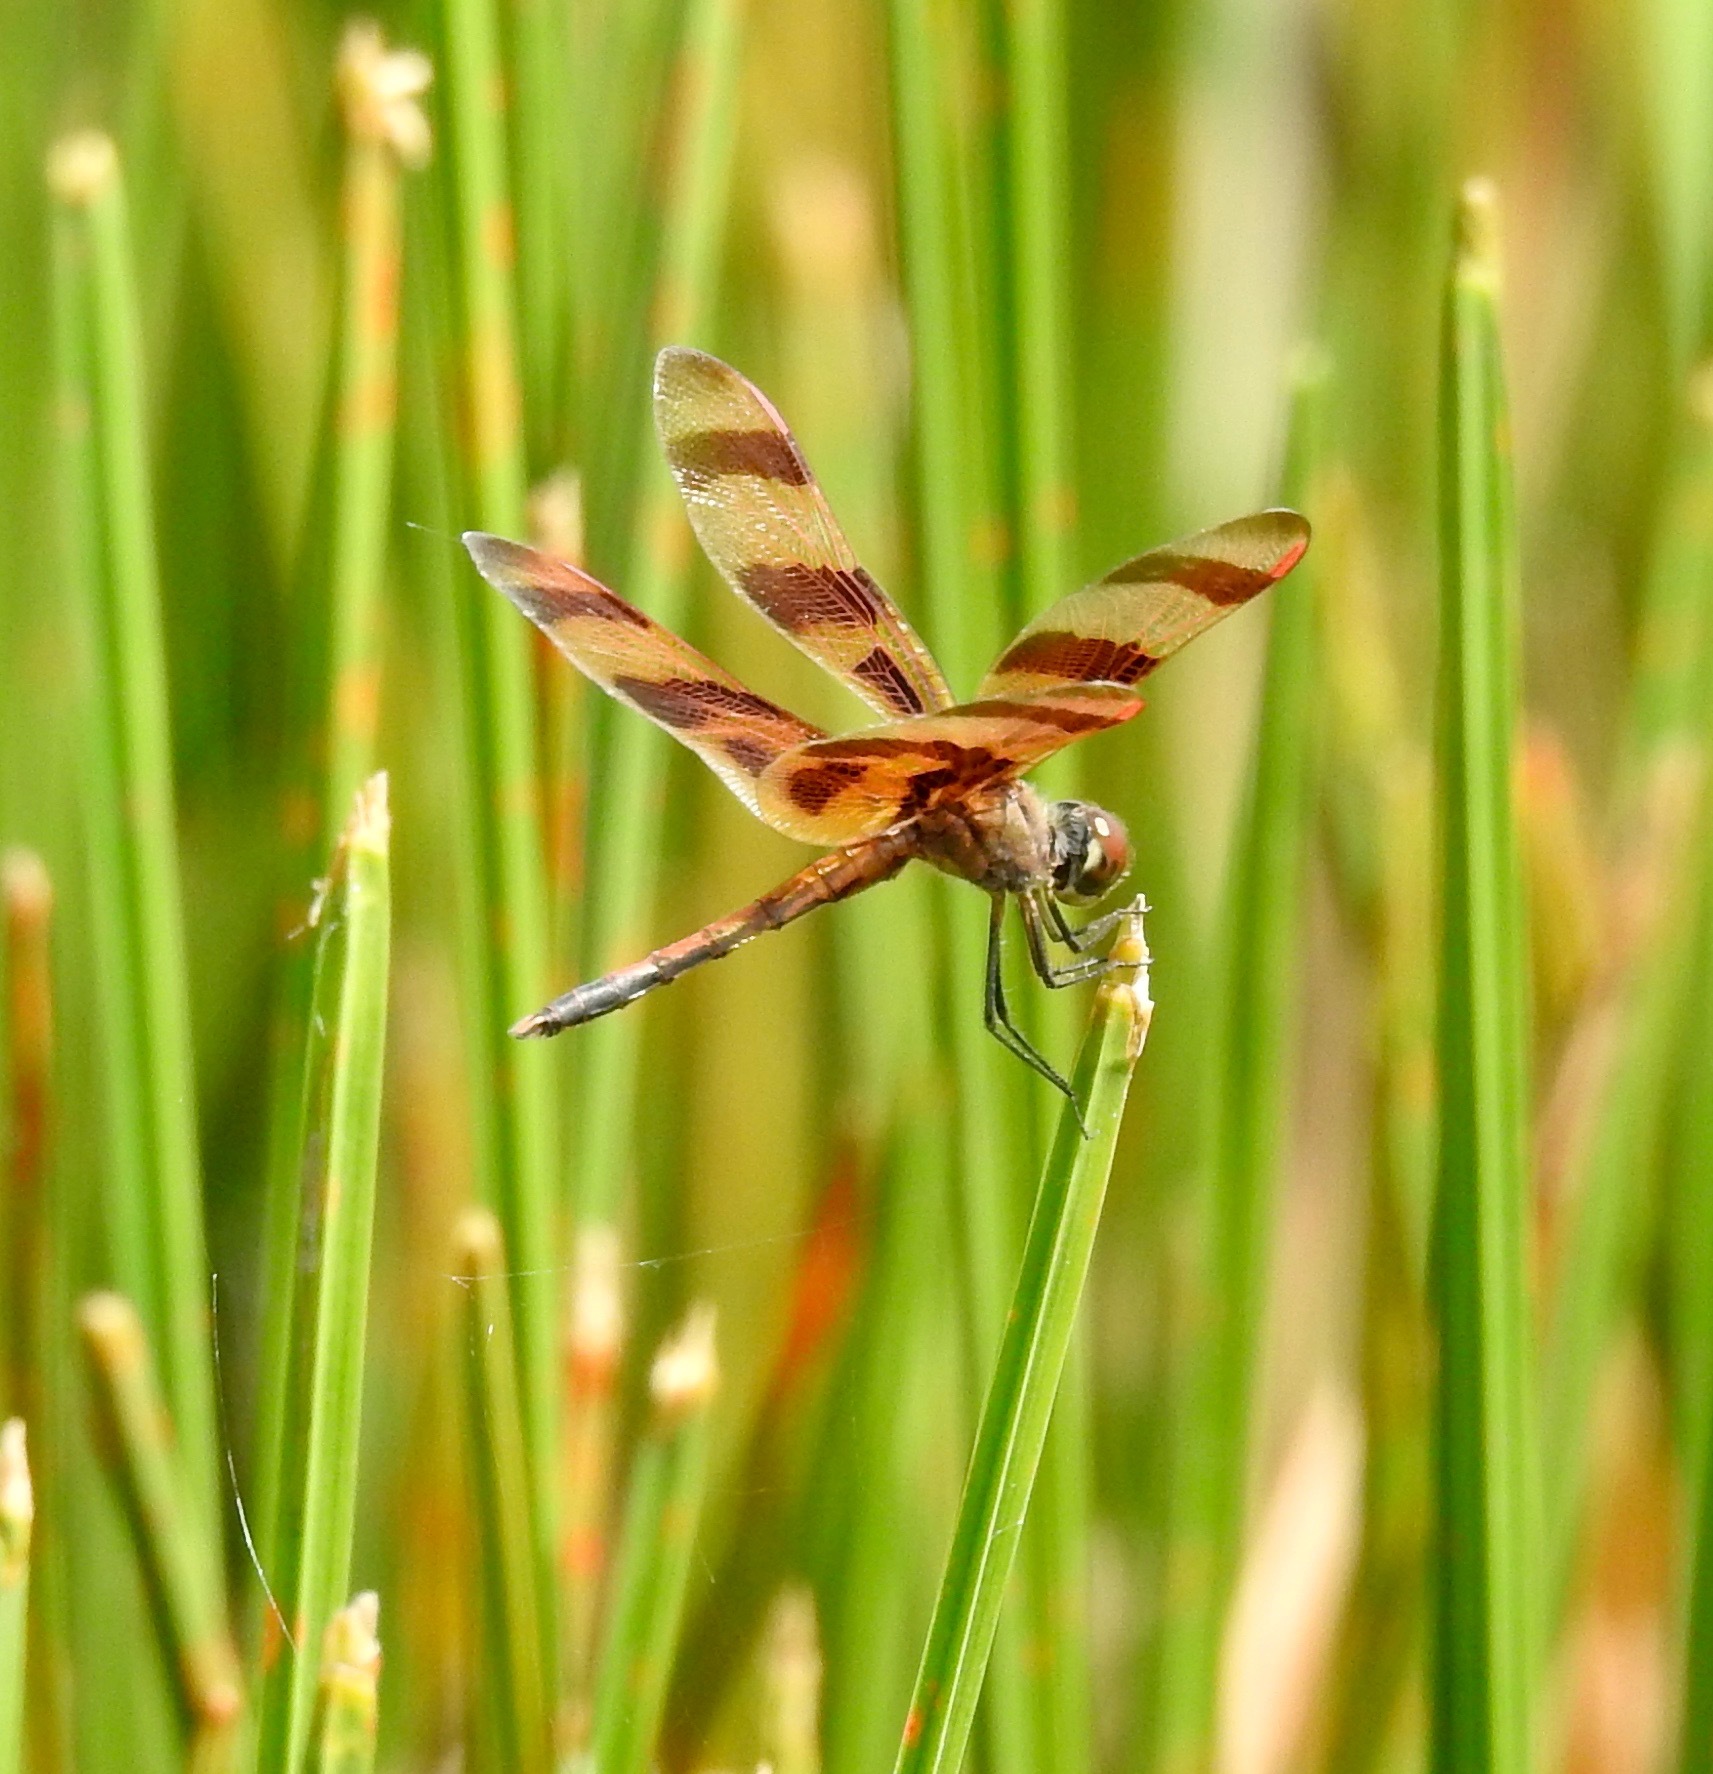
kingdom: Animalia
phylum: Arthropoda
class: Insecta
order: Odonata
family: Libellulidae
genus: Celithemis
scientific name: Celithemis eponina
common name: Halloween pennant
